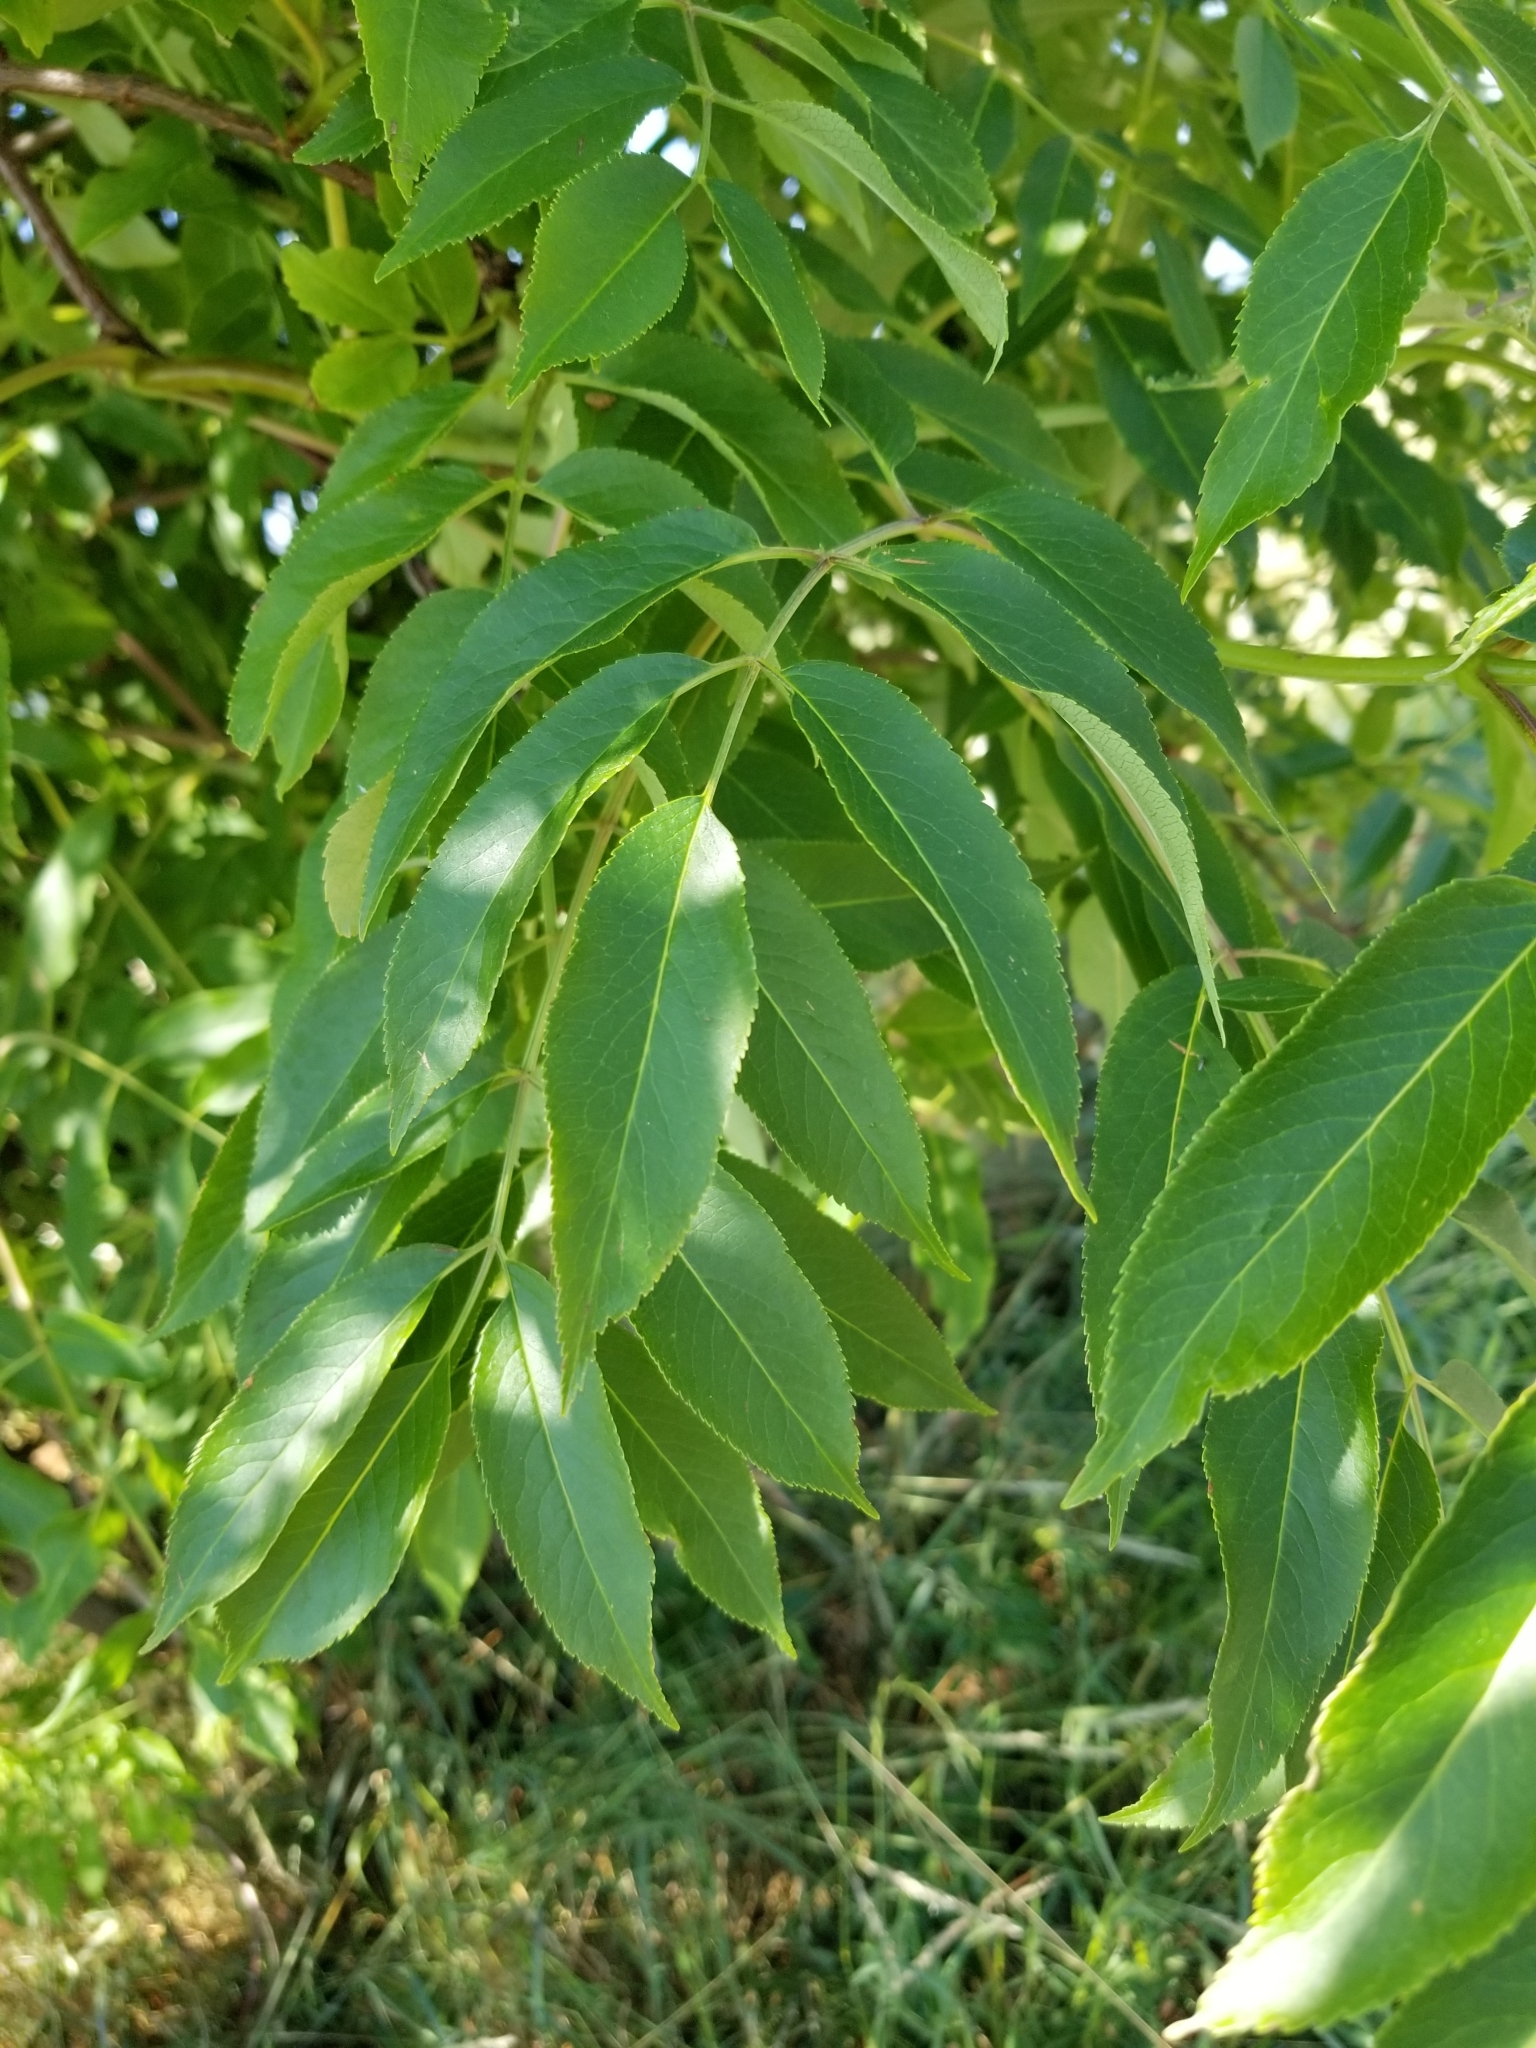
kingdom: Plantae
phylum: Tracheophyta
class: Magnoliopsida
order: Dipsacales
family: Viburnaceae
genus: Sambucus
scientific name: Sambucus cerulea
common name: Blue elder
